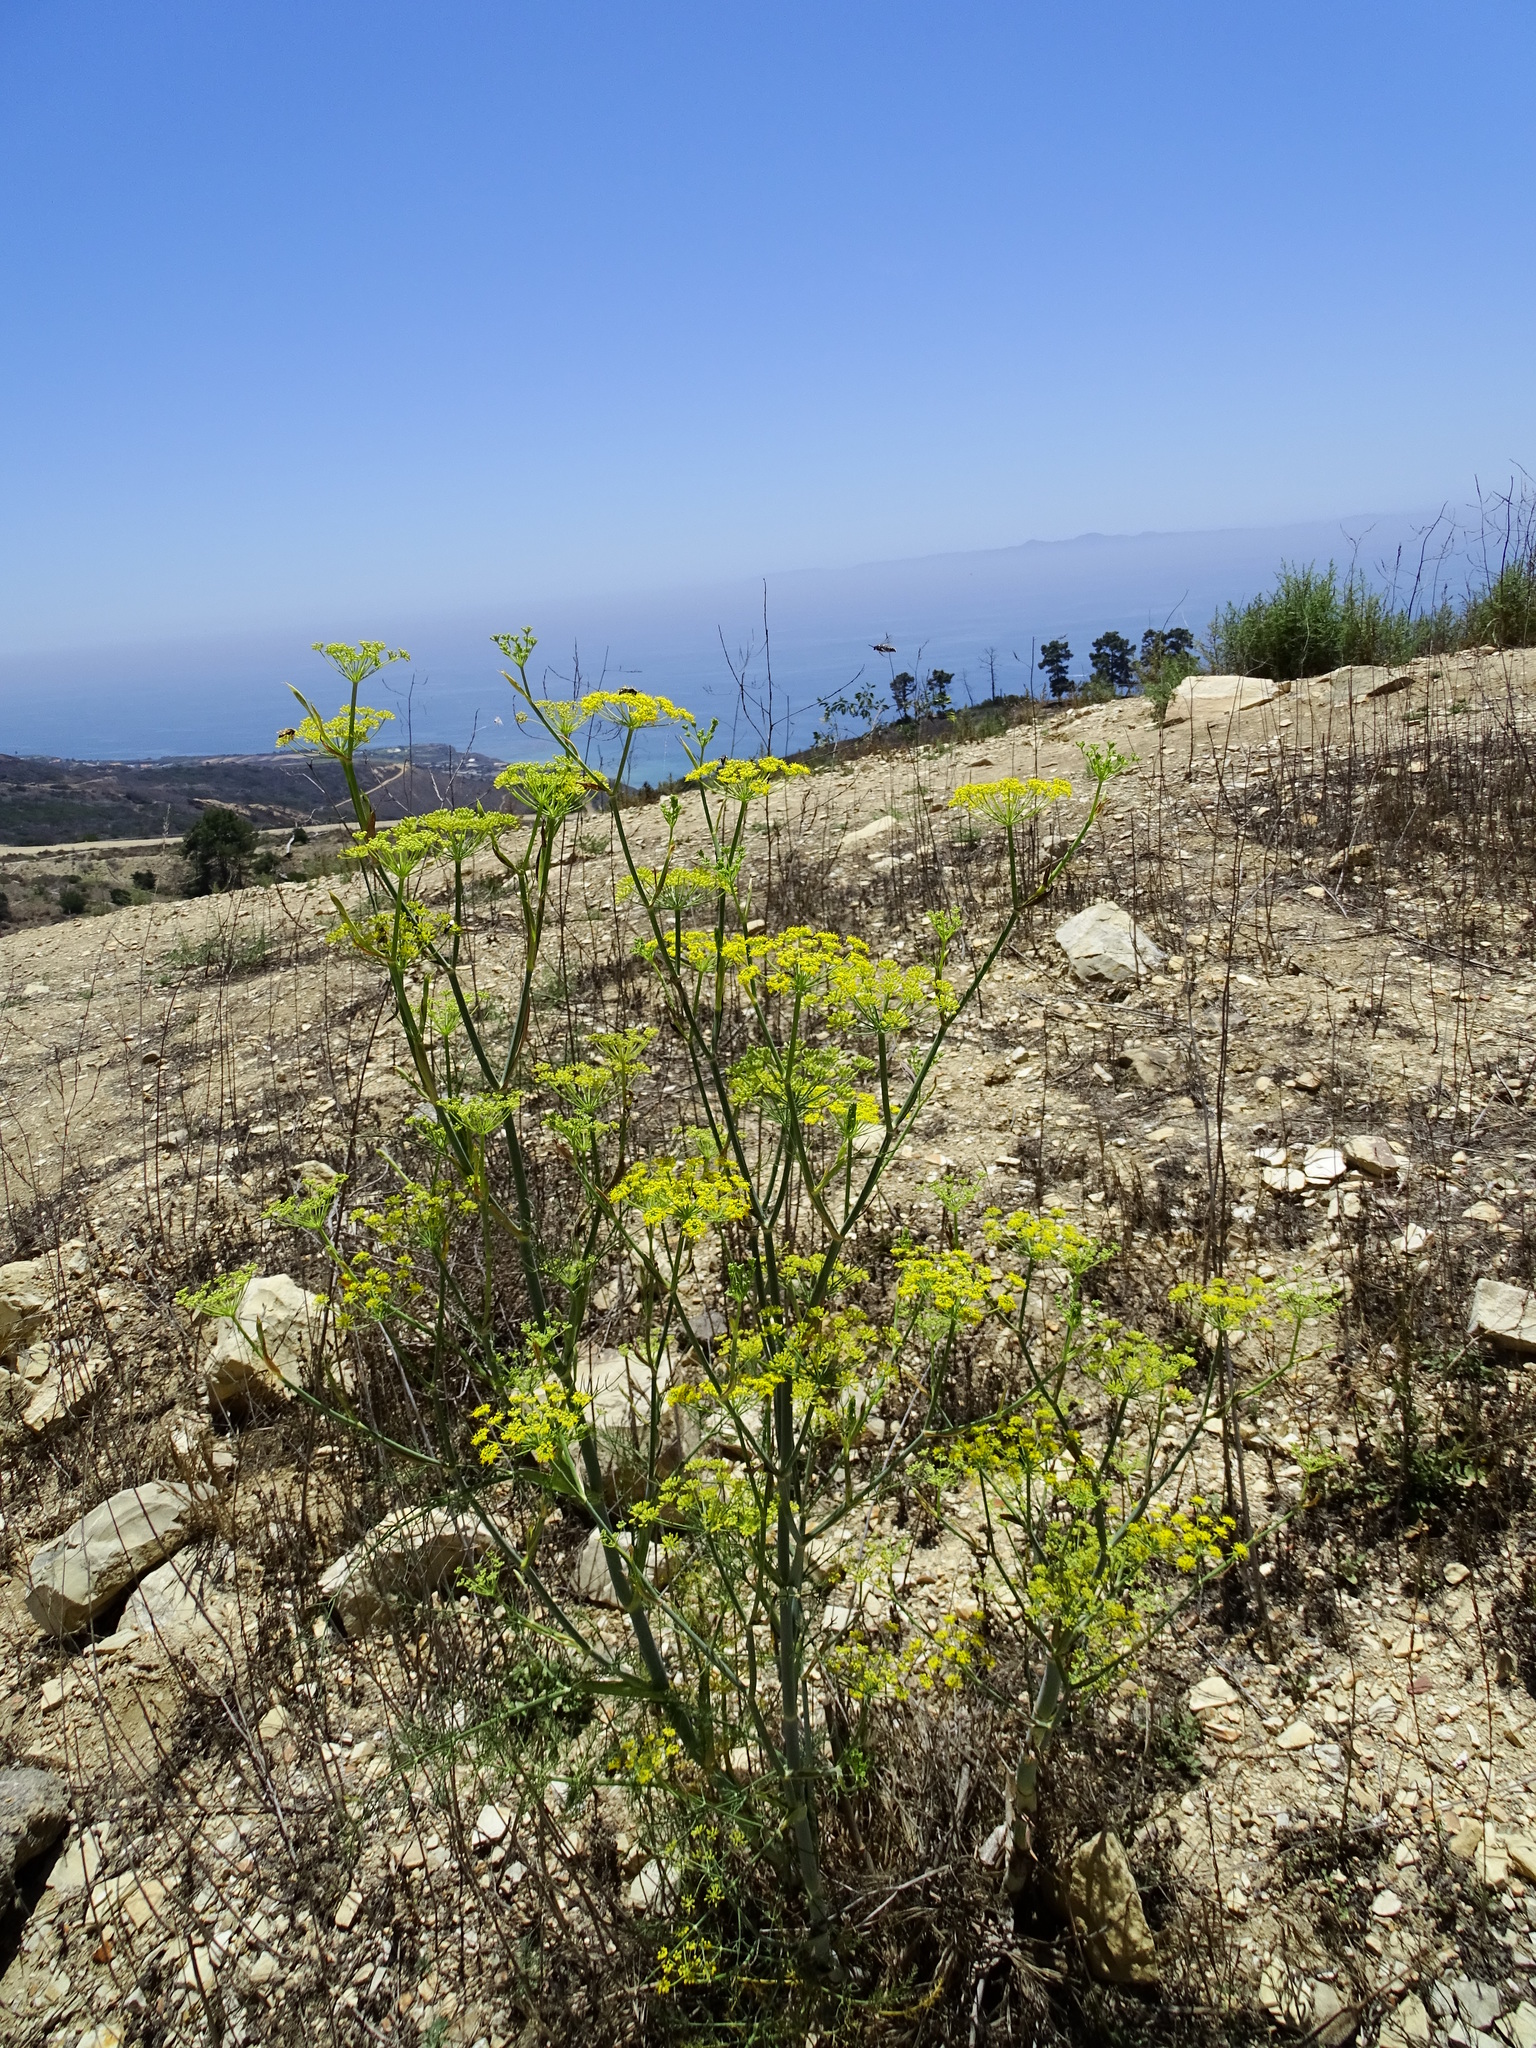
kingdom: Plantae
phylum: Tracheophyta
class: Magnoliopsida
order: Apiales
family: Apiaceae
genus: Foeniculum
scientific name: Foeniculum vulgare
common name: Fennel
